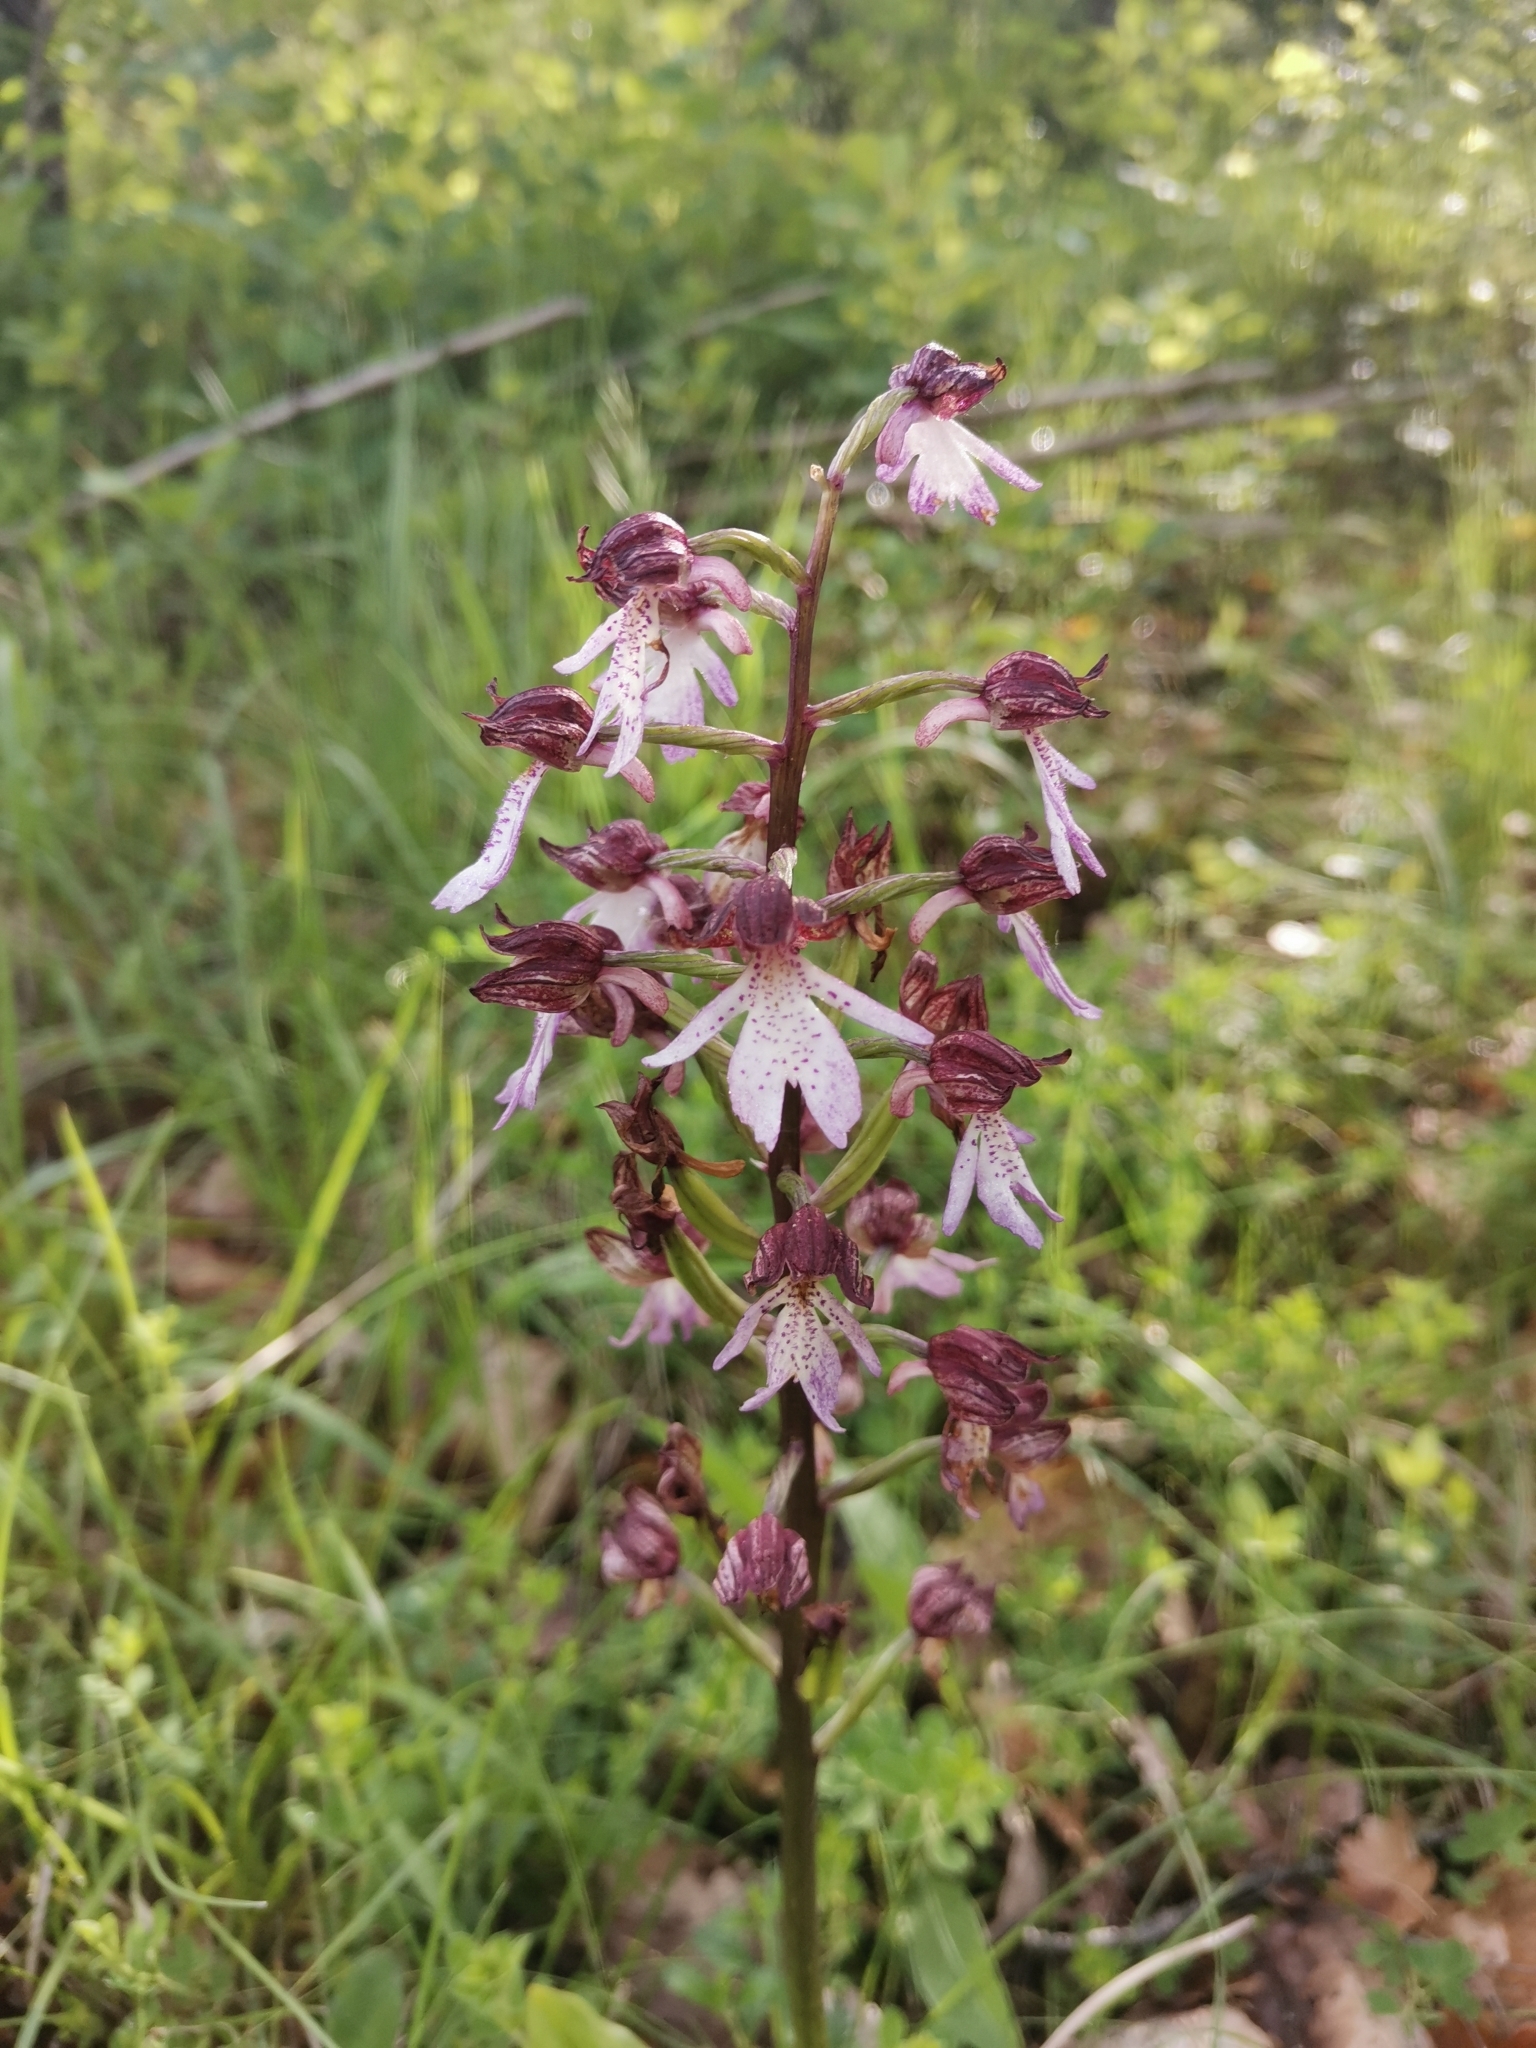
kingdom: Plantae
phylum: Tracheophyta
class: Liliopsida
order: Asparagales
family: Orchidaceae
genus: Orchis
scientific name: Orchis purpurea
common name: Lady orchid
